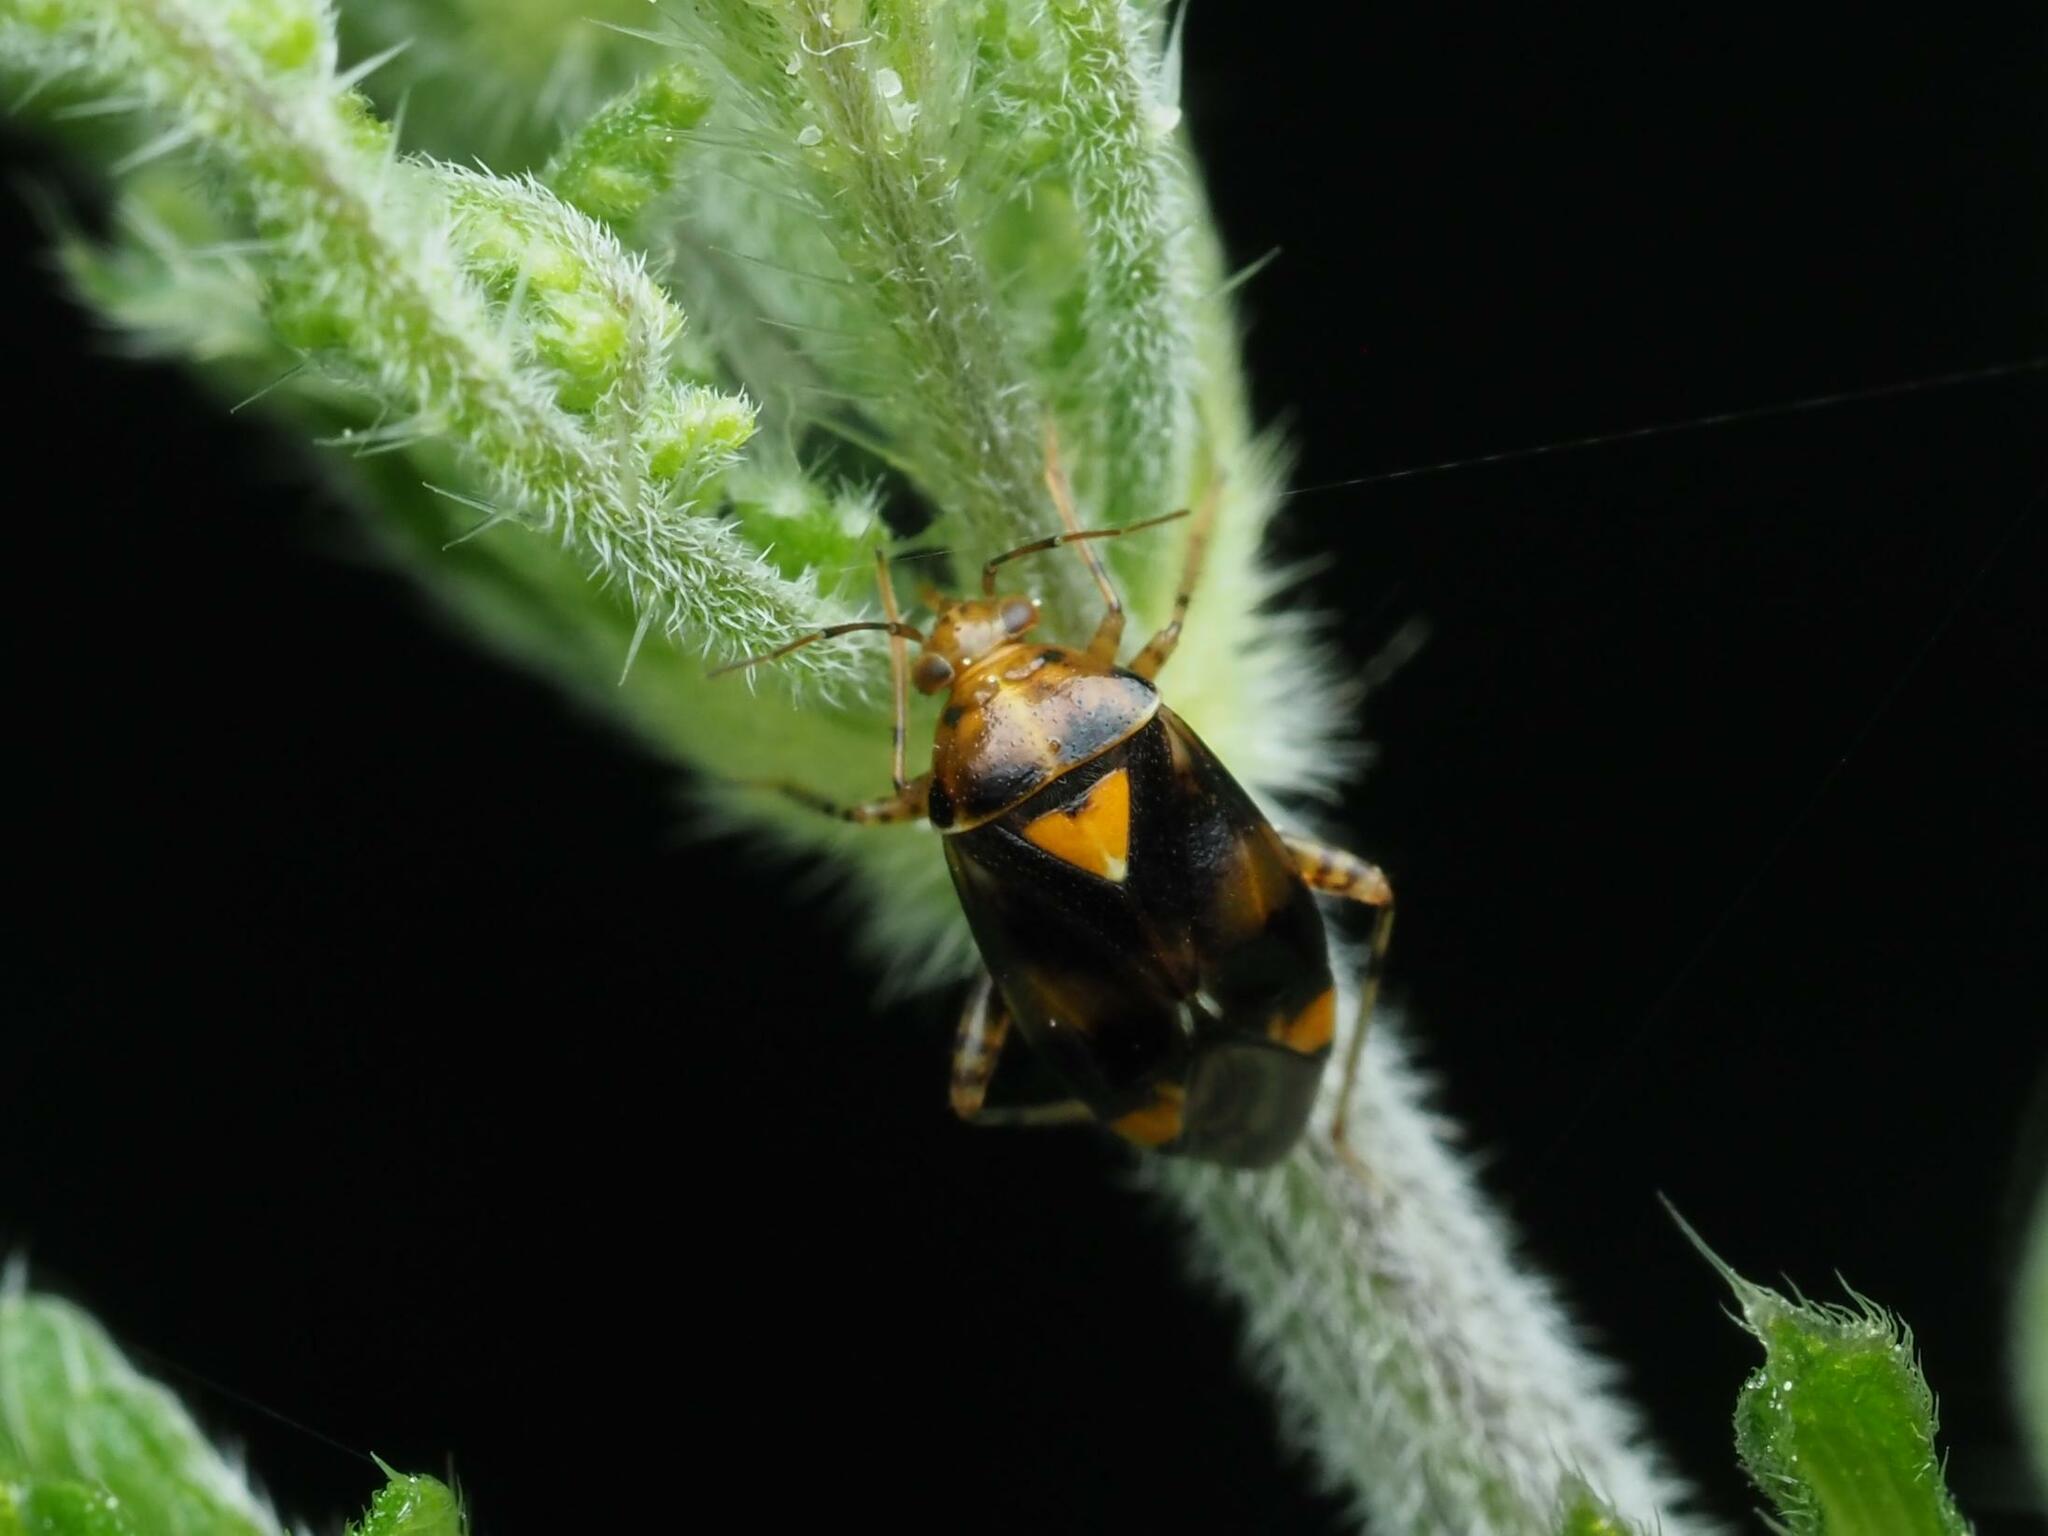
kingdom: Animalia
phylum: Arthropoda
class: Insecta
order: Hemiptera
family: Miridae
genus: Liocoris
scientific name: Liocoris tripustulatus
